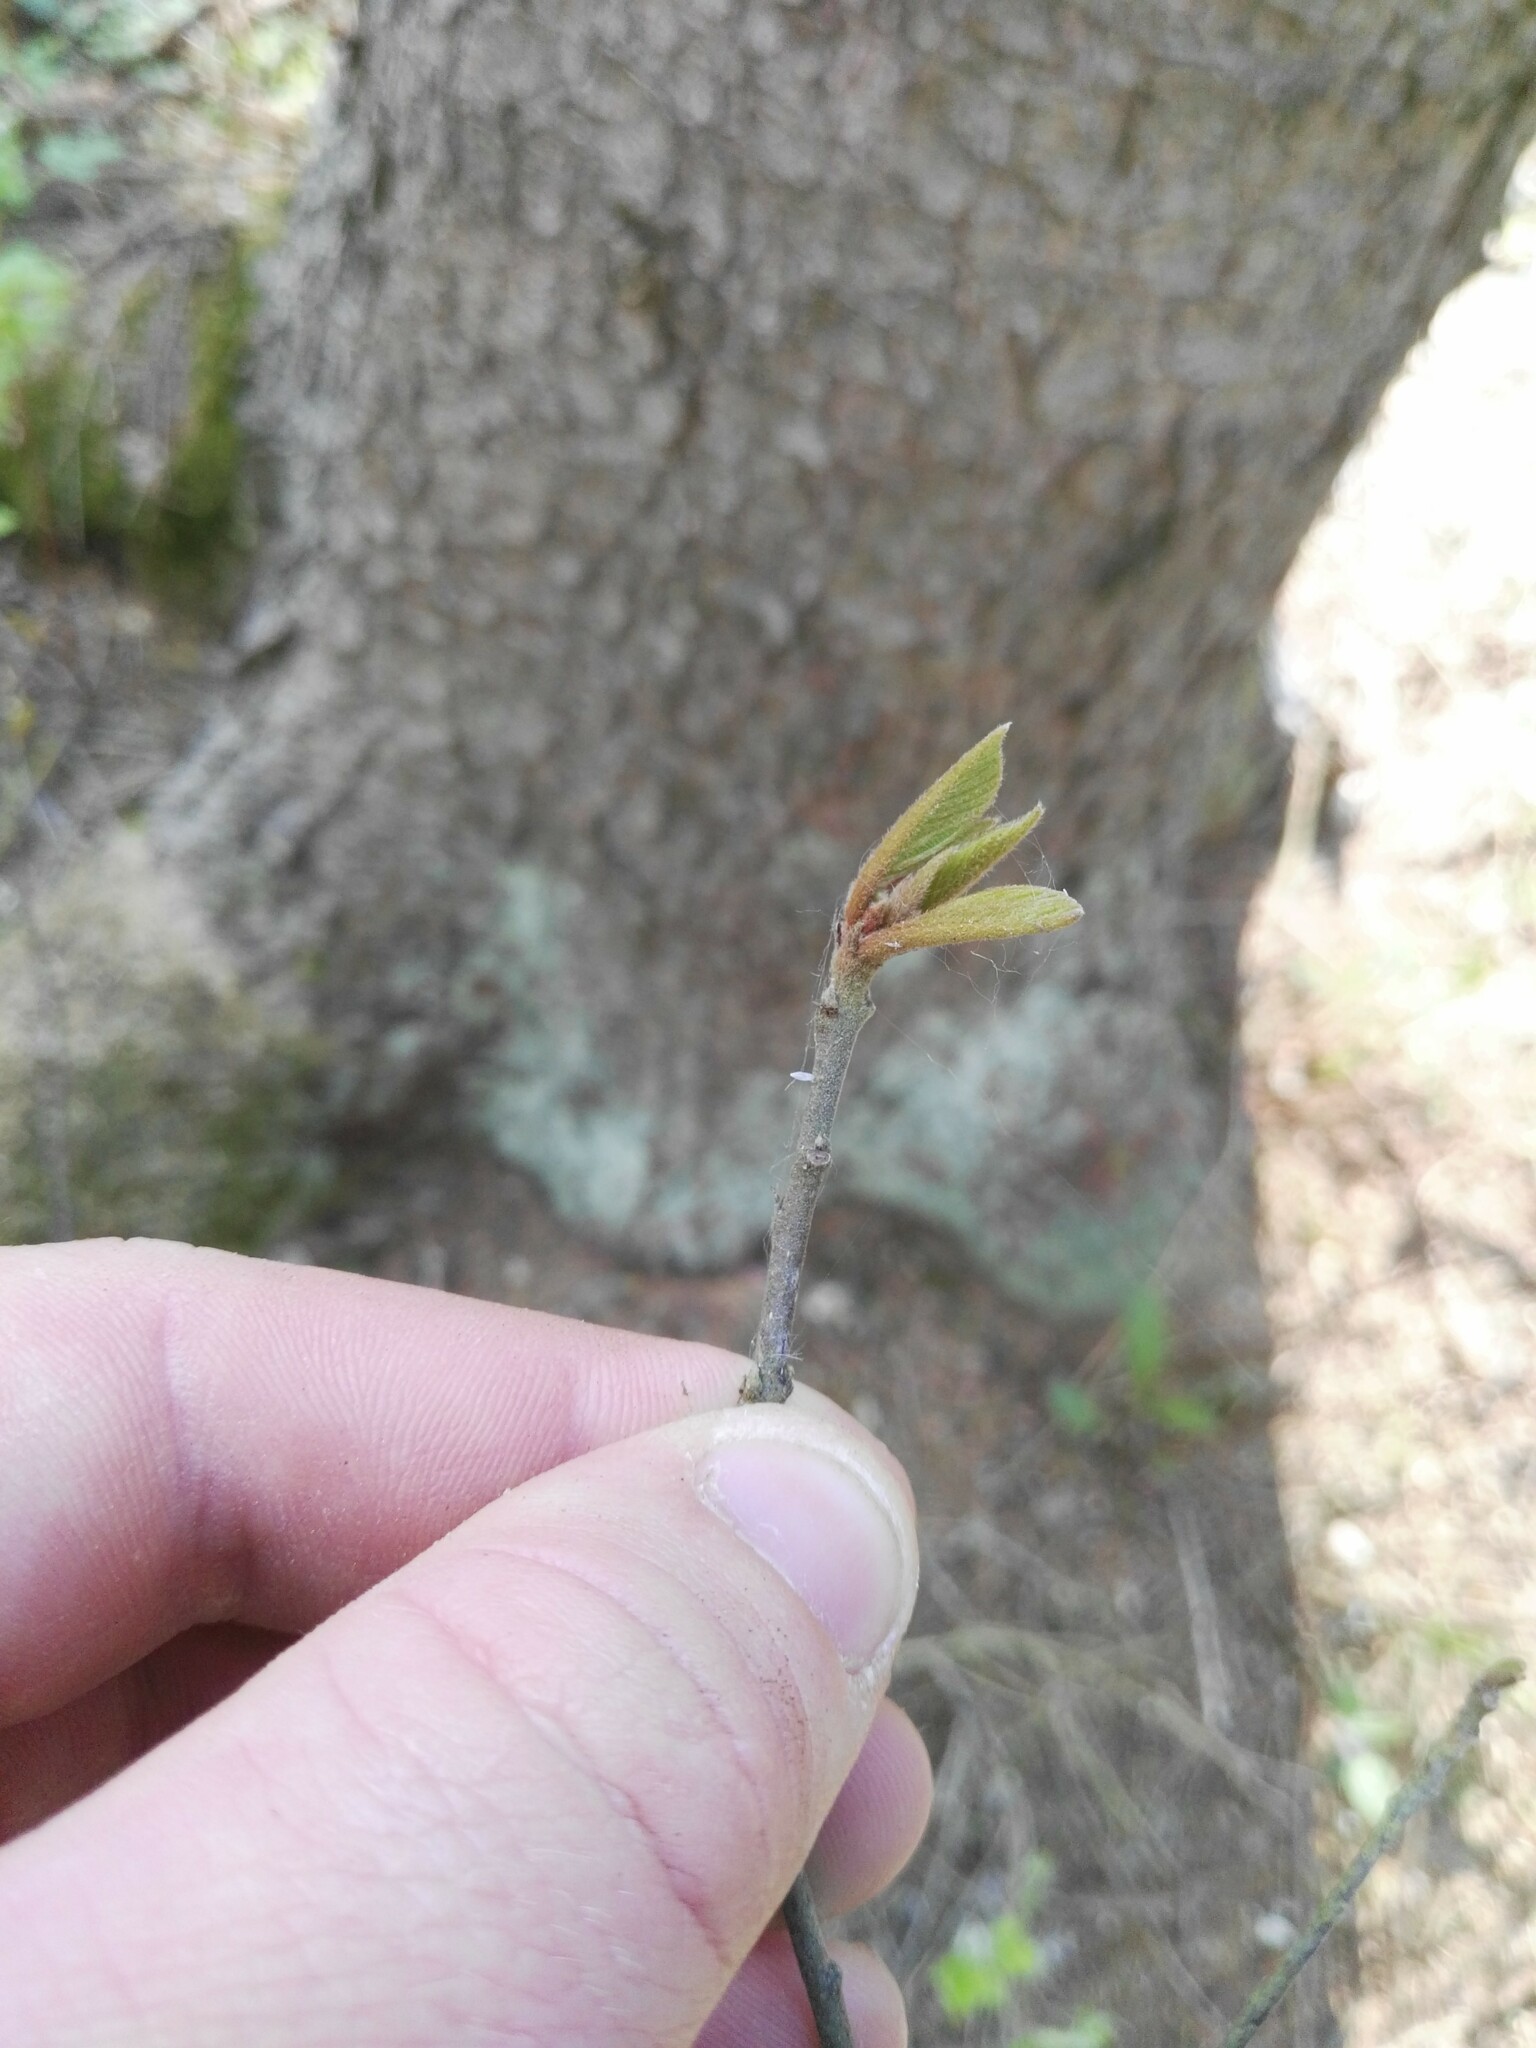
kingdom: Animalia
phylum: Arthropoda
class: Insecta
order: Lepidoptera
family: Pieridae
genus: Gonepteryx
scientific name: Gonepteryx rhamni
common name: Brimstone
